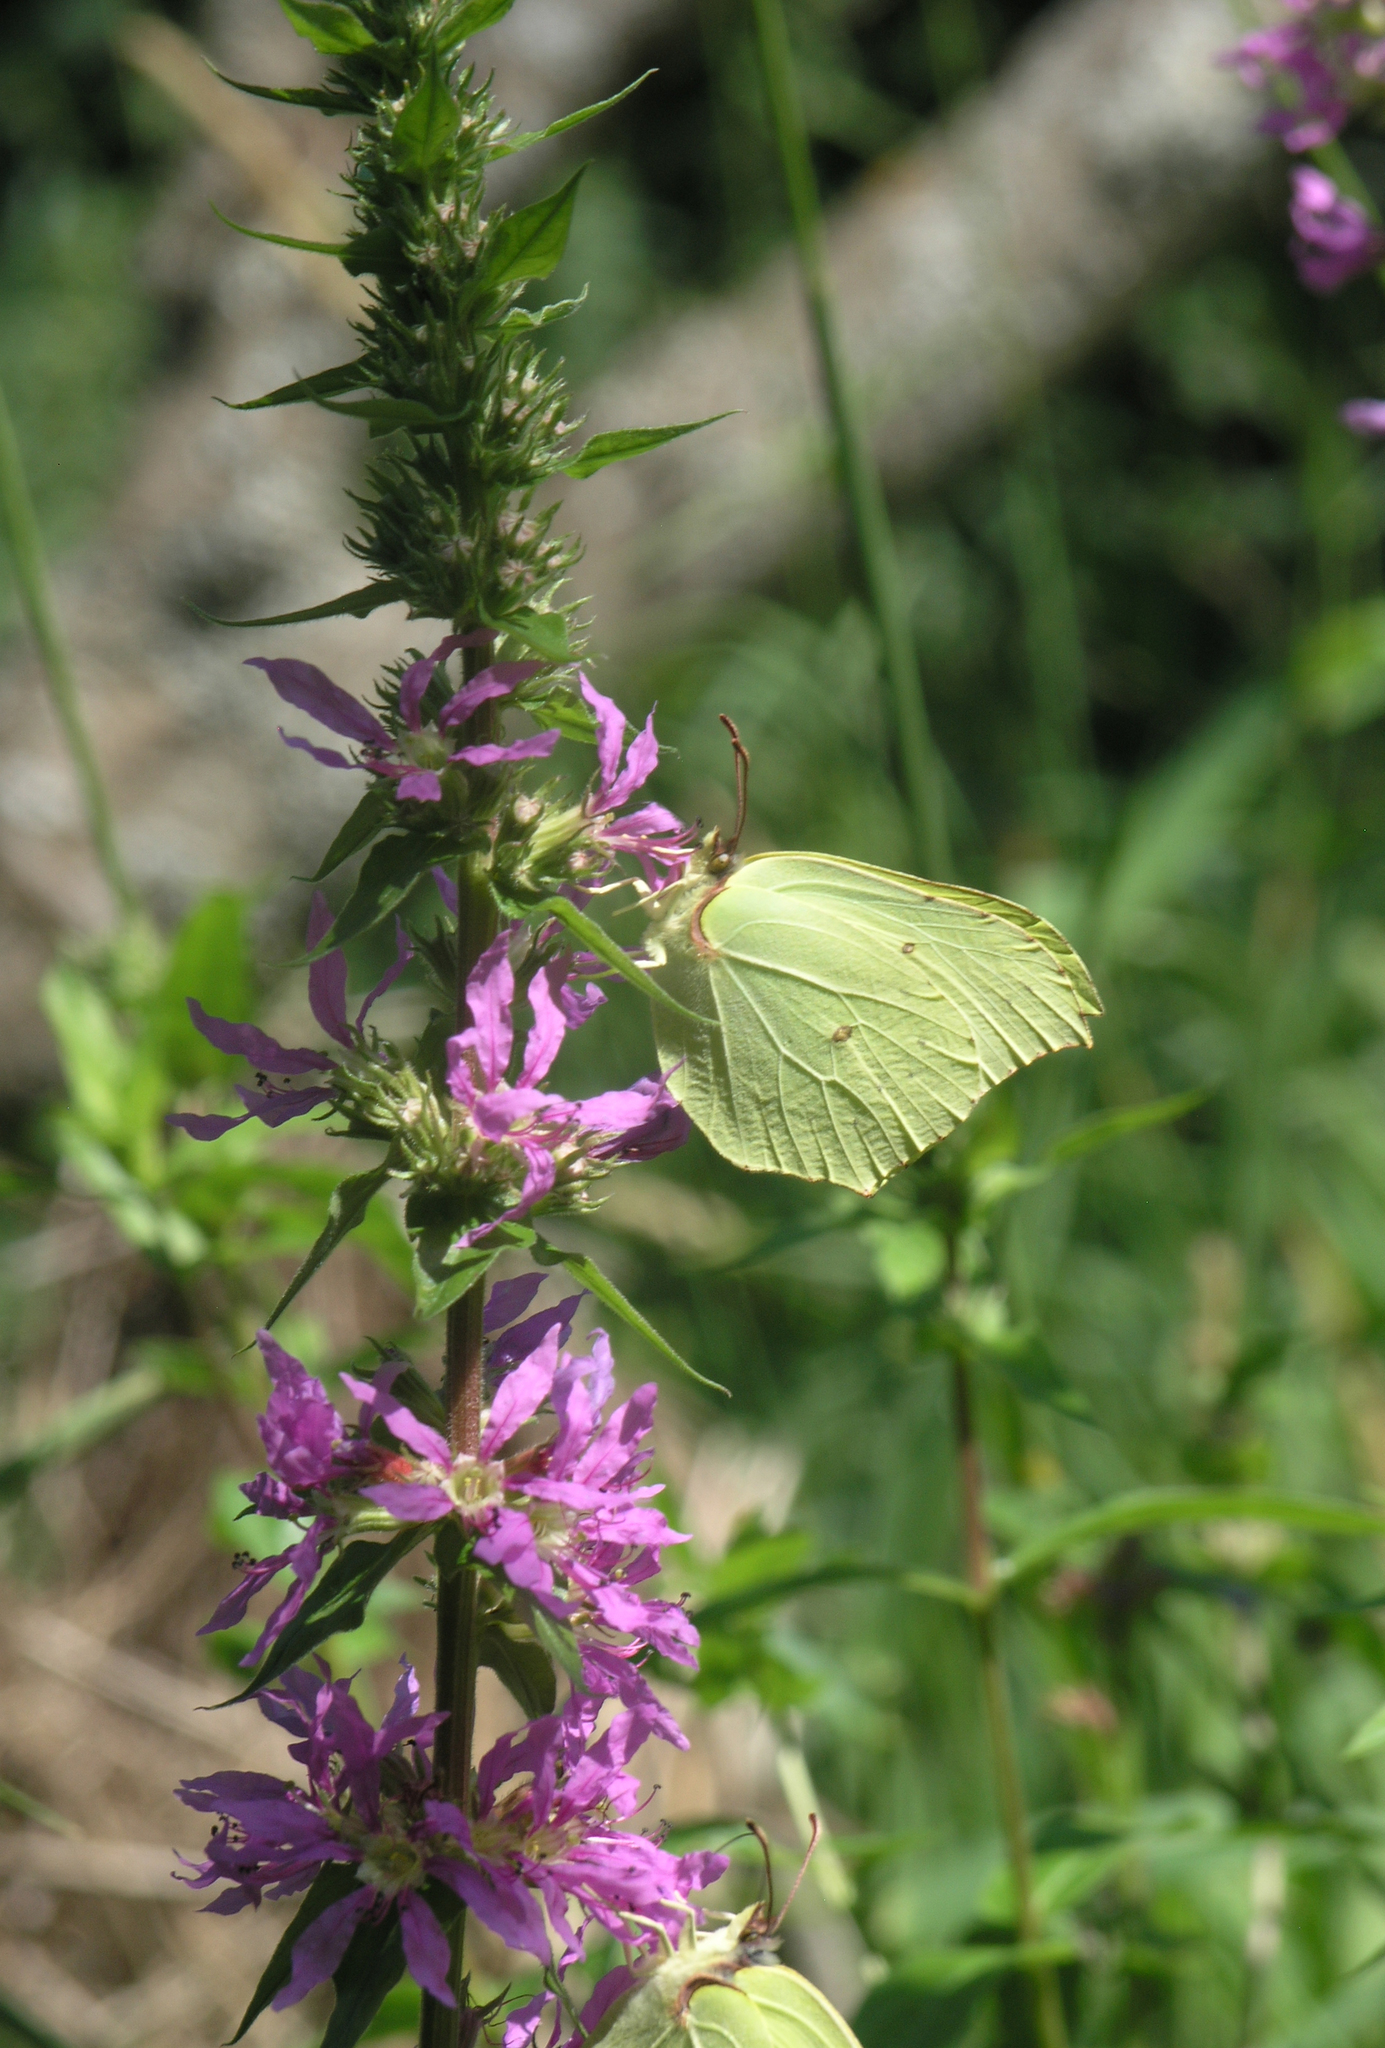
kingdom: Animalia
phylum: Arthropoda
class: Insecta
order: Lepidoptera
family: Pieridae
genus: Gonepteryx
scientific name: Gonepteryx rhamni
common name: Brimstone
